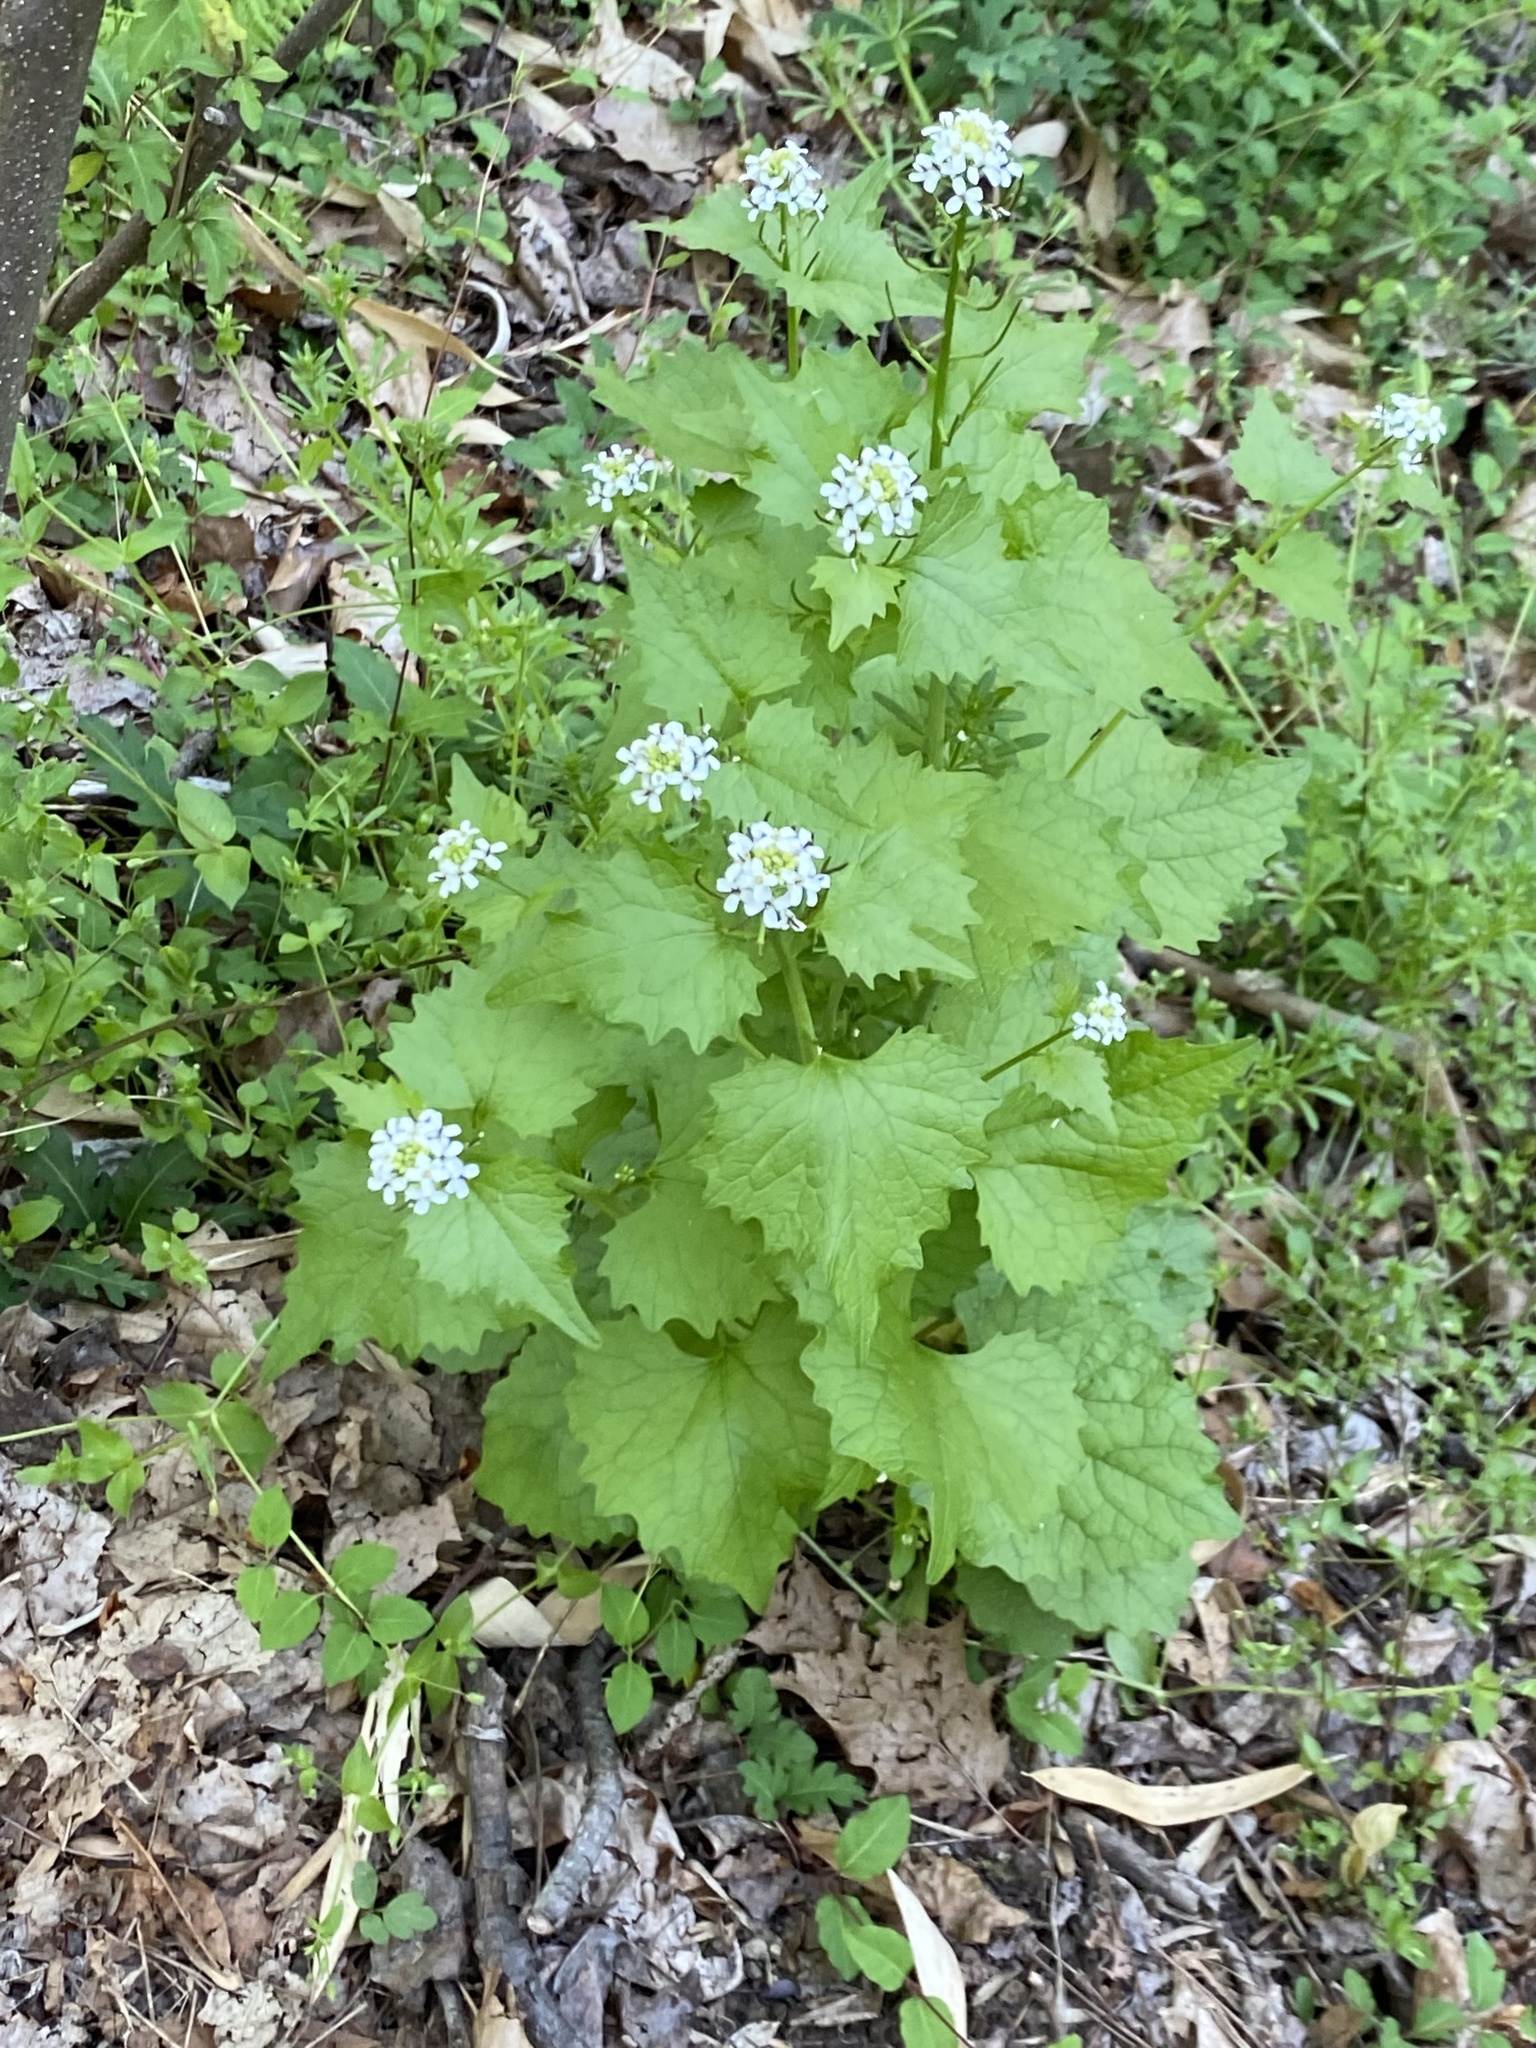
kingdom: Plantae
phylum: Tracheophyta
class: Magnoliopsida
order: Brassicales
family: Brassicaceae
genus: Alliaria
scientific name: Alliaria petiolata
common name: Garlic mustard
